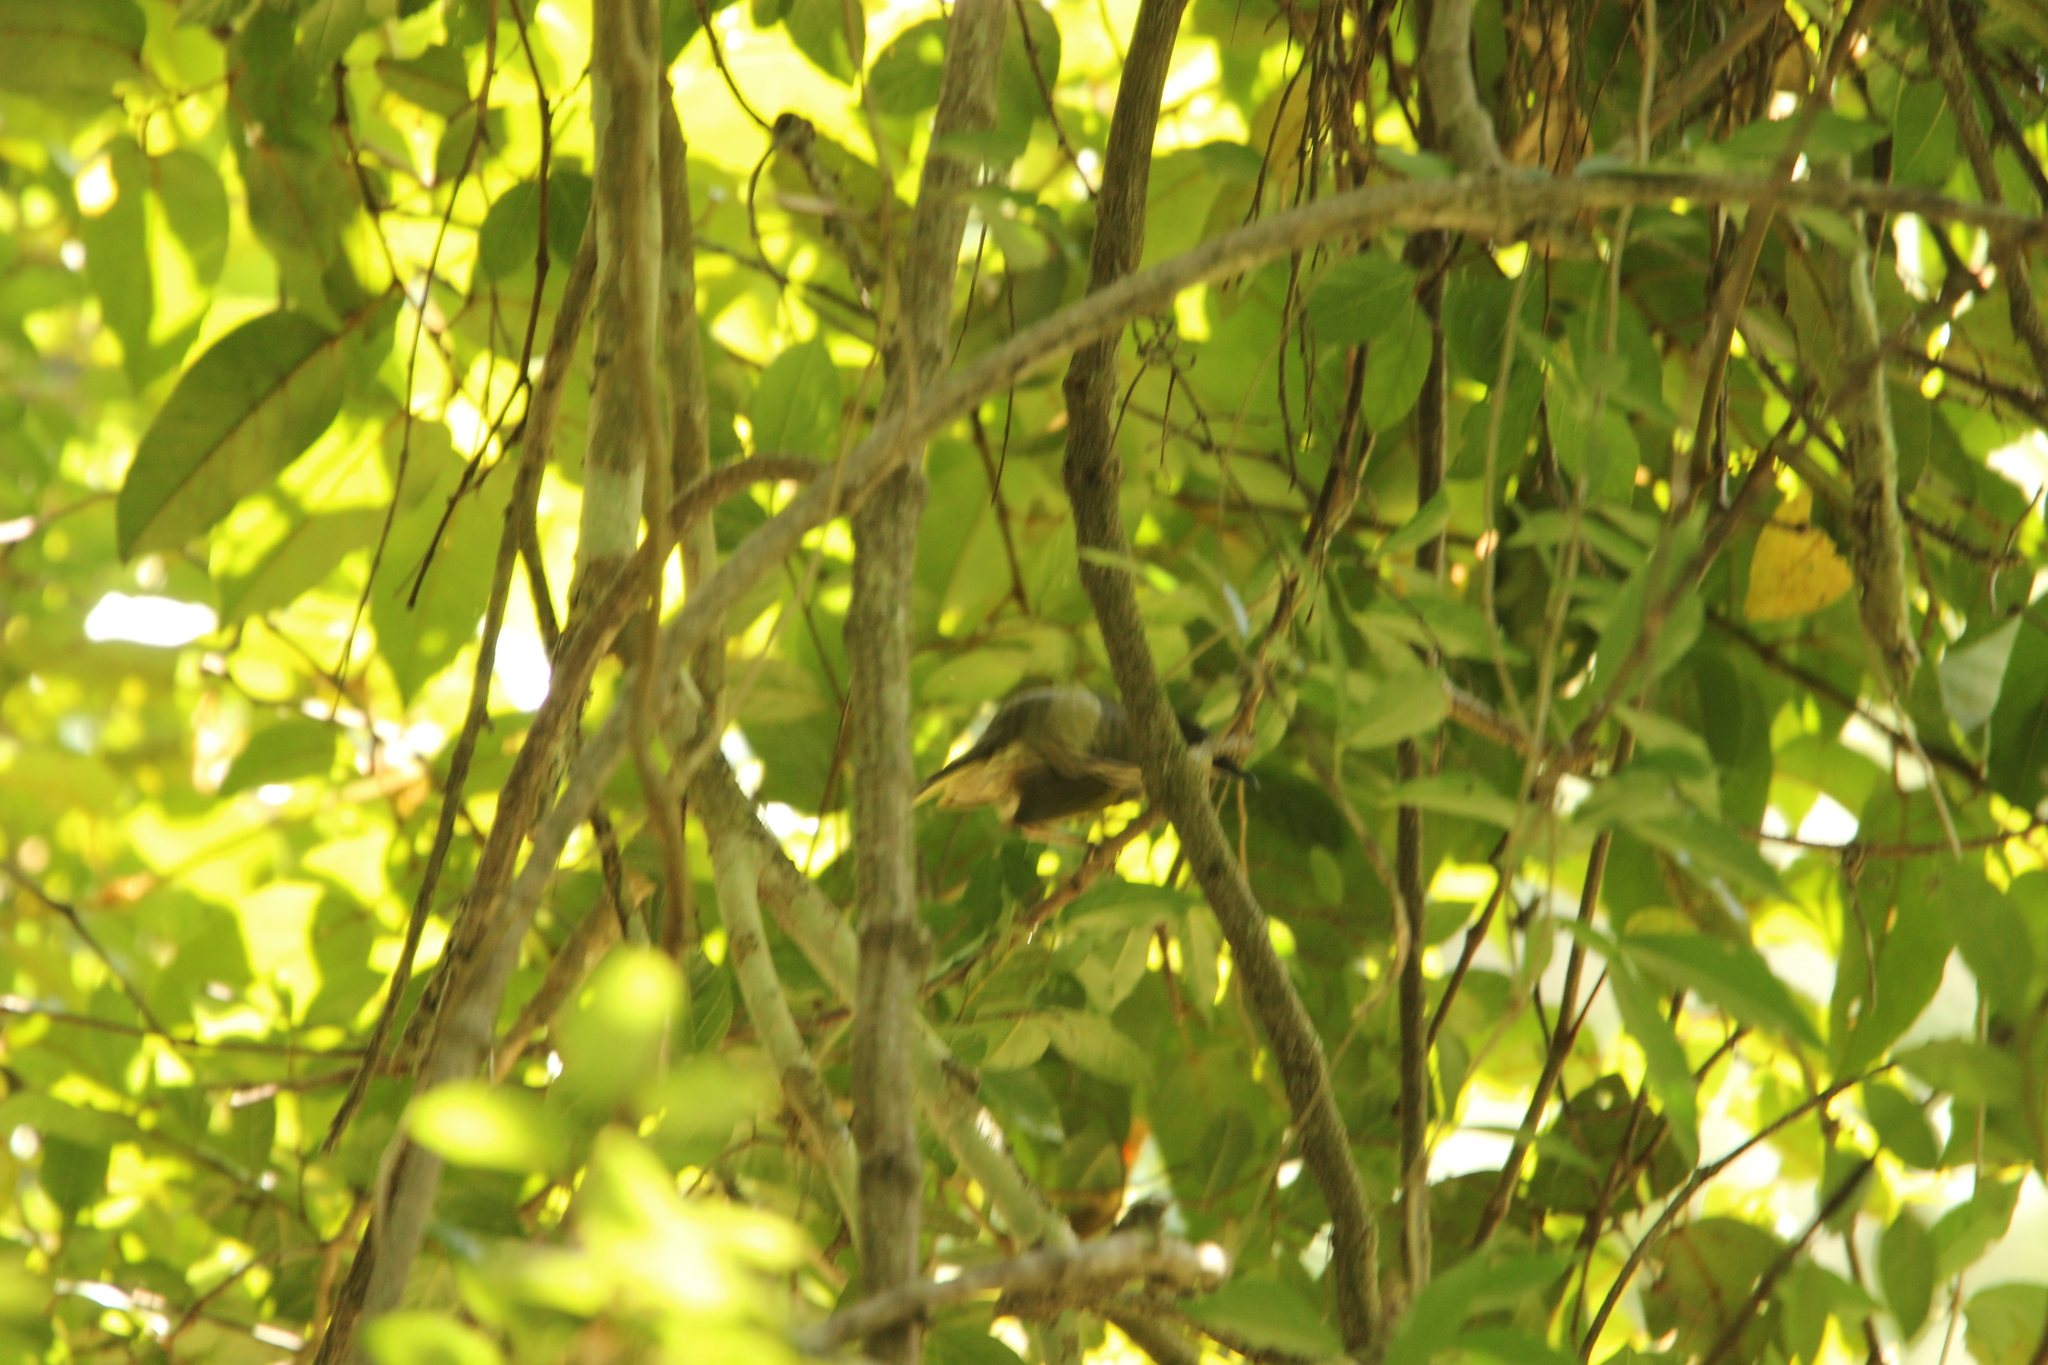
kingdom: Animalia
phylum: Chordata
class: Aves
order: Passeriformes
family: Meliphagidae
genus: Meliphaga
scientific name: Meliphaga lewinii
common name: Lewin's honeyeater
